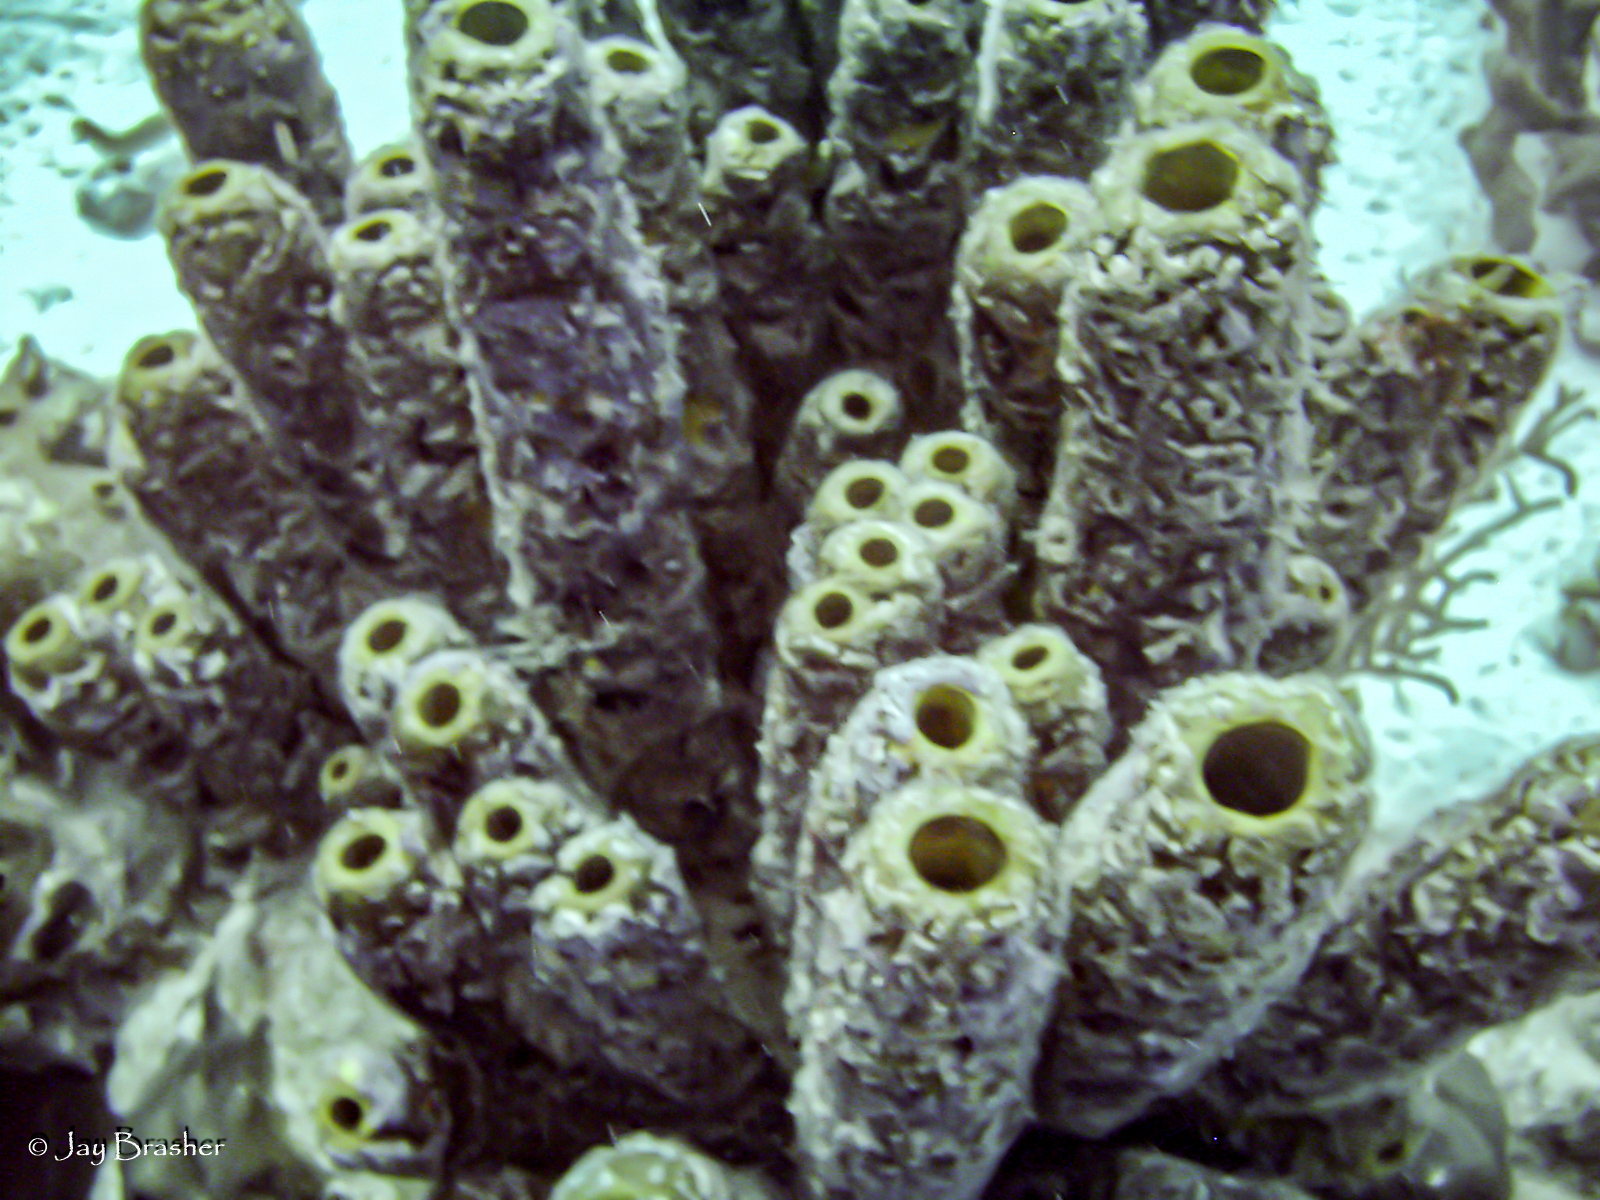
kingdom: Animalia
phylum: Porifera
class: Demospongiae
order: Verongiida
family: Aplysinidae
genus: Aplysina
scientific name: Aplysina archeri
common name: Stove-pipe sponge
